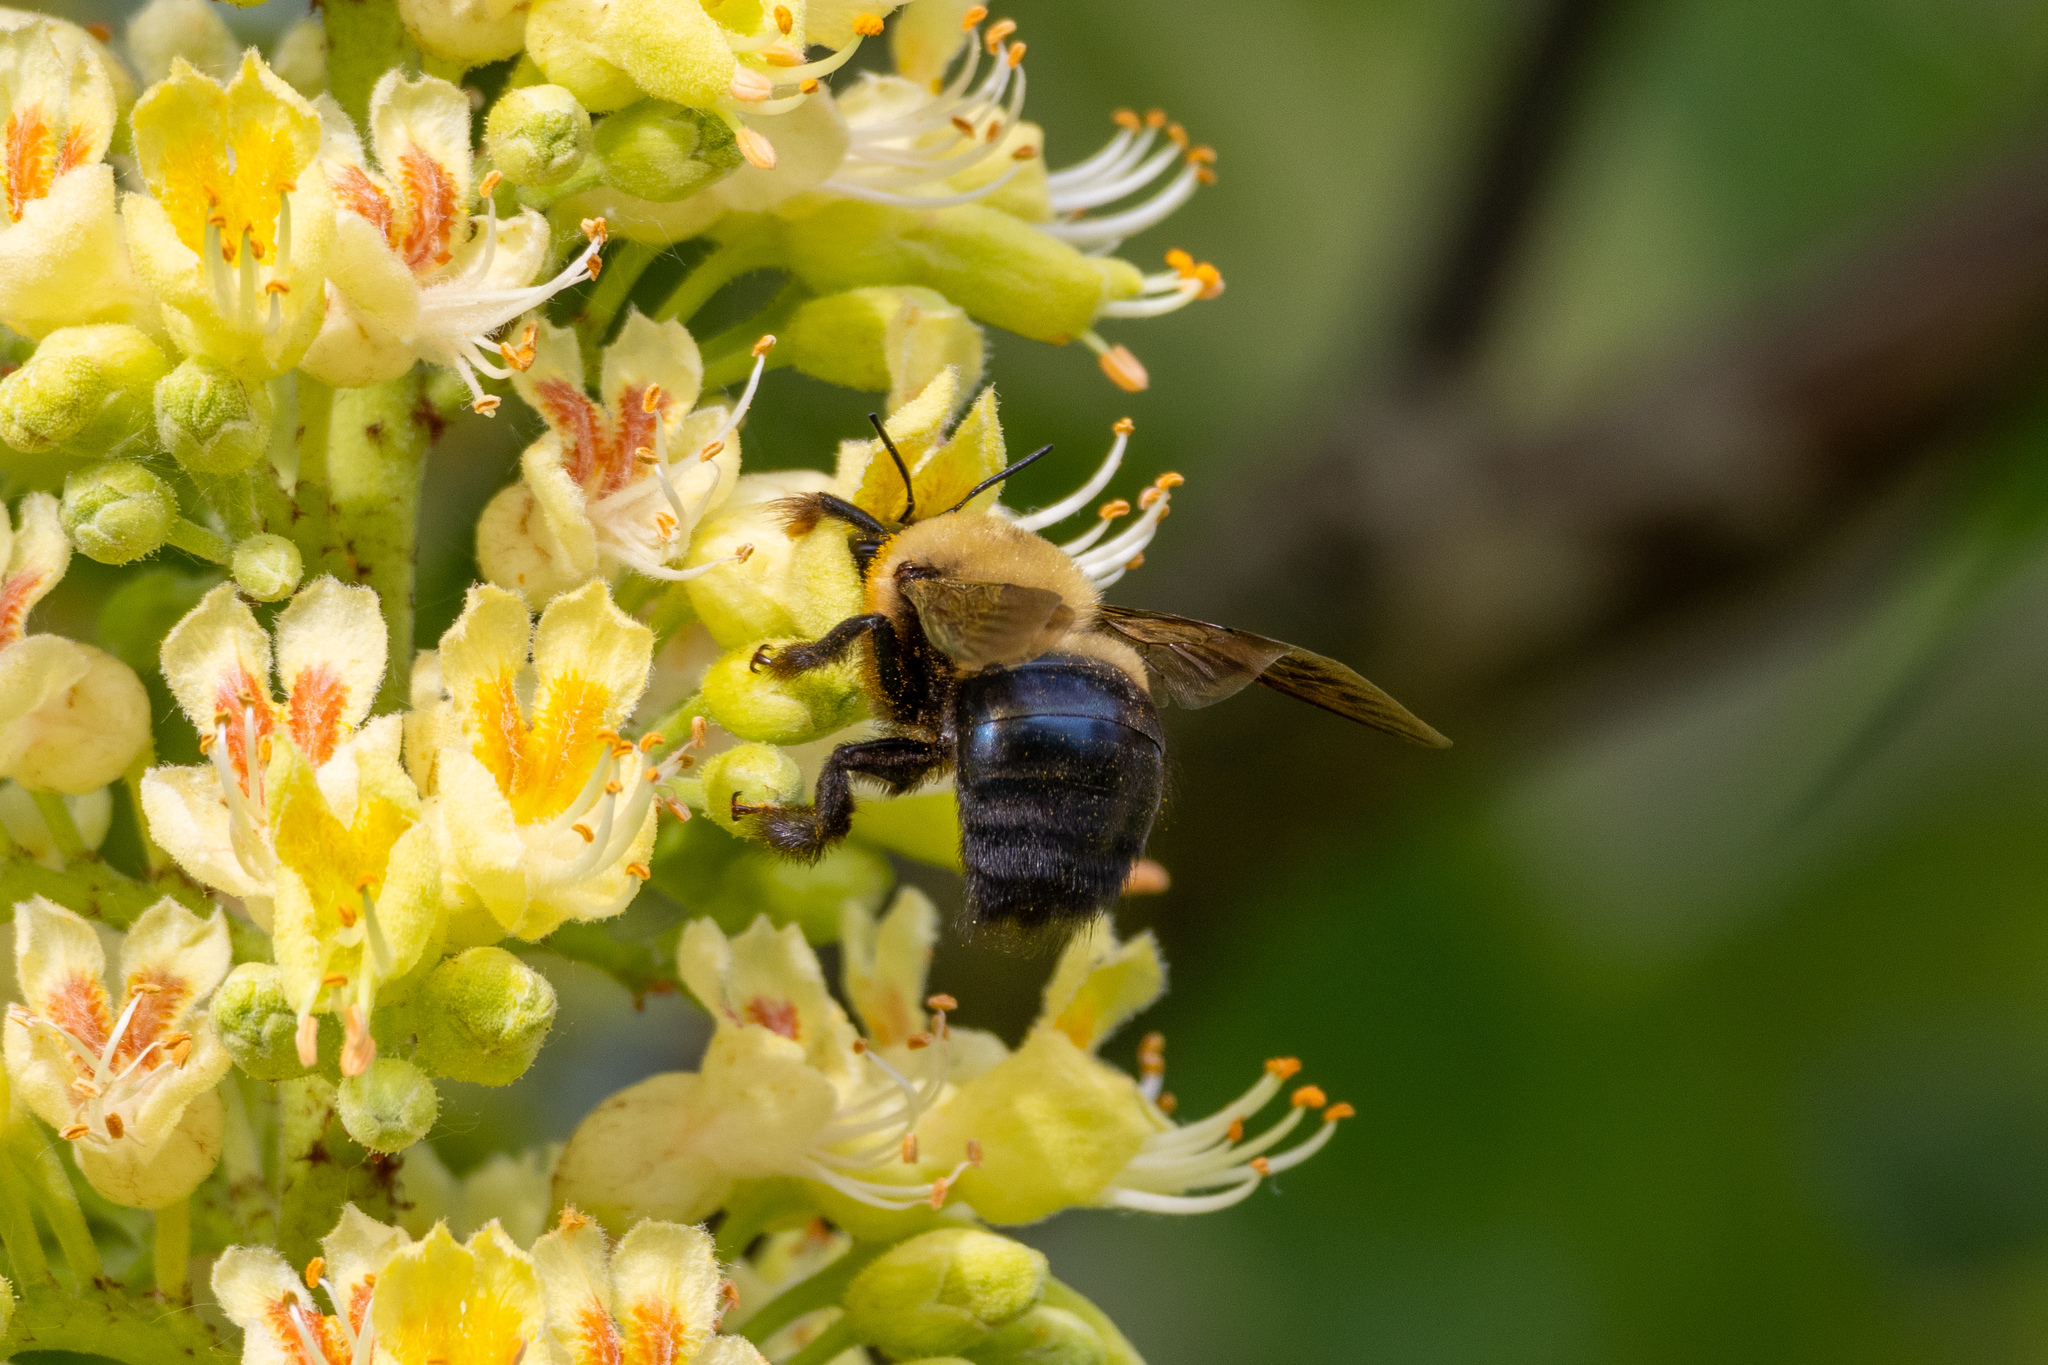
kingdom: Animalia
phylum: Arthropoda
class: Insecta
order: Hymenoptera
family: Apidae
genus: Xylocopa
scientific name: Xylocopa virginica
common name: Carpenter bee
